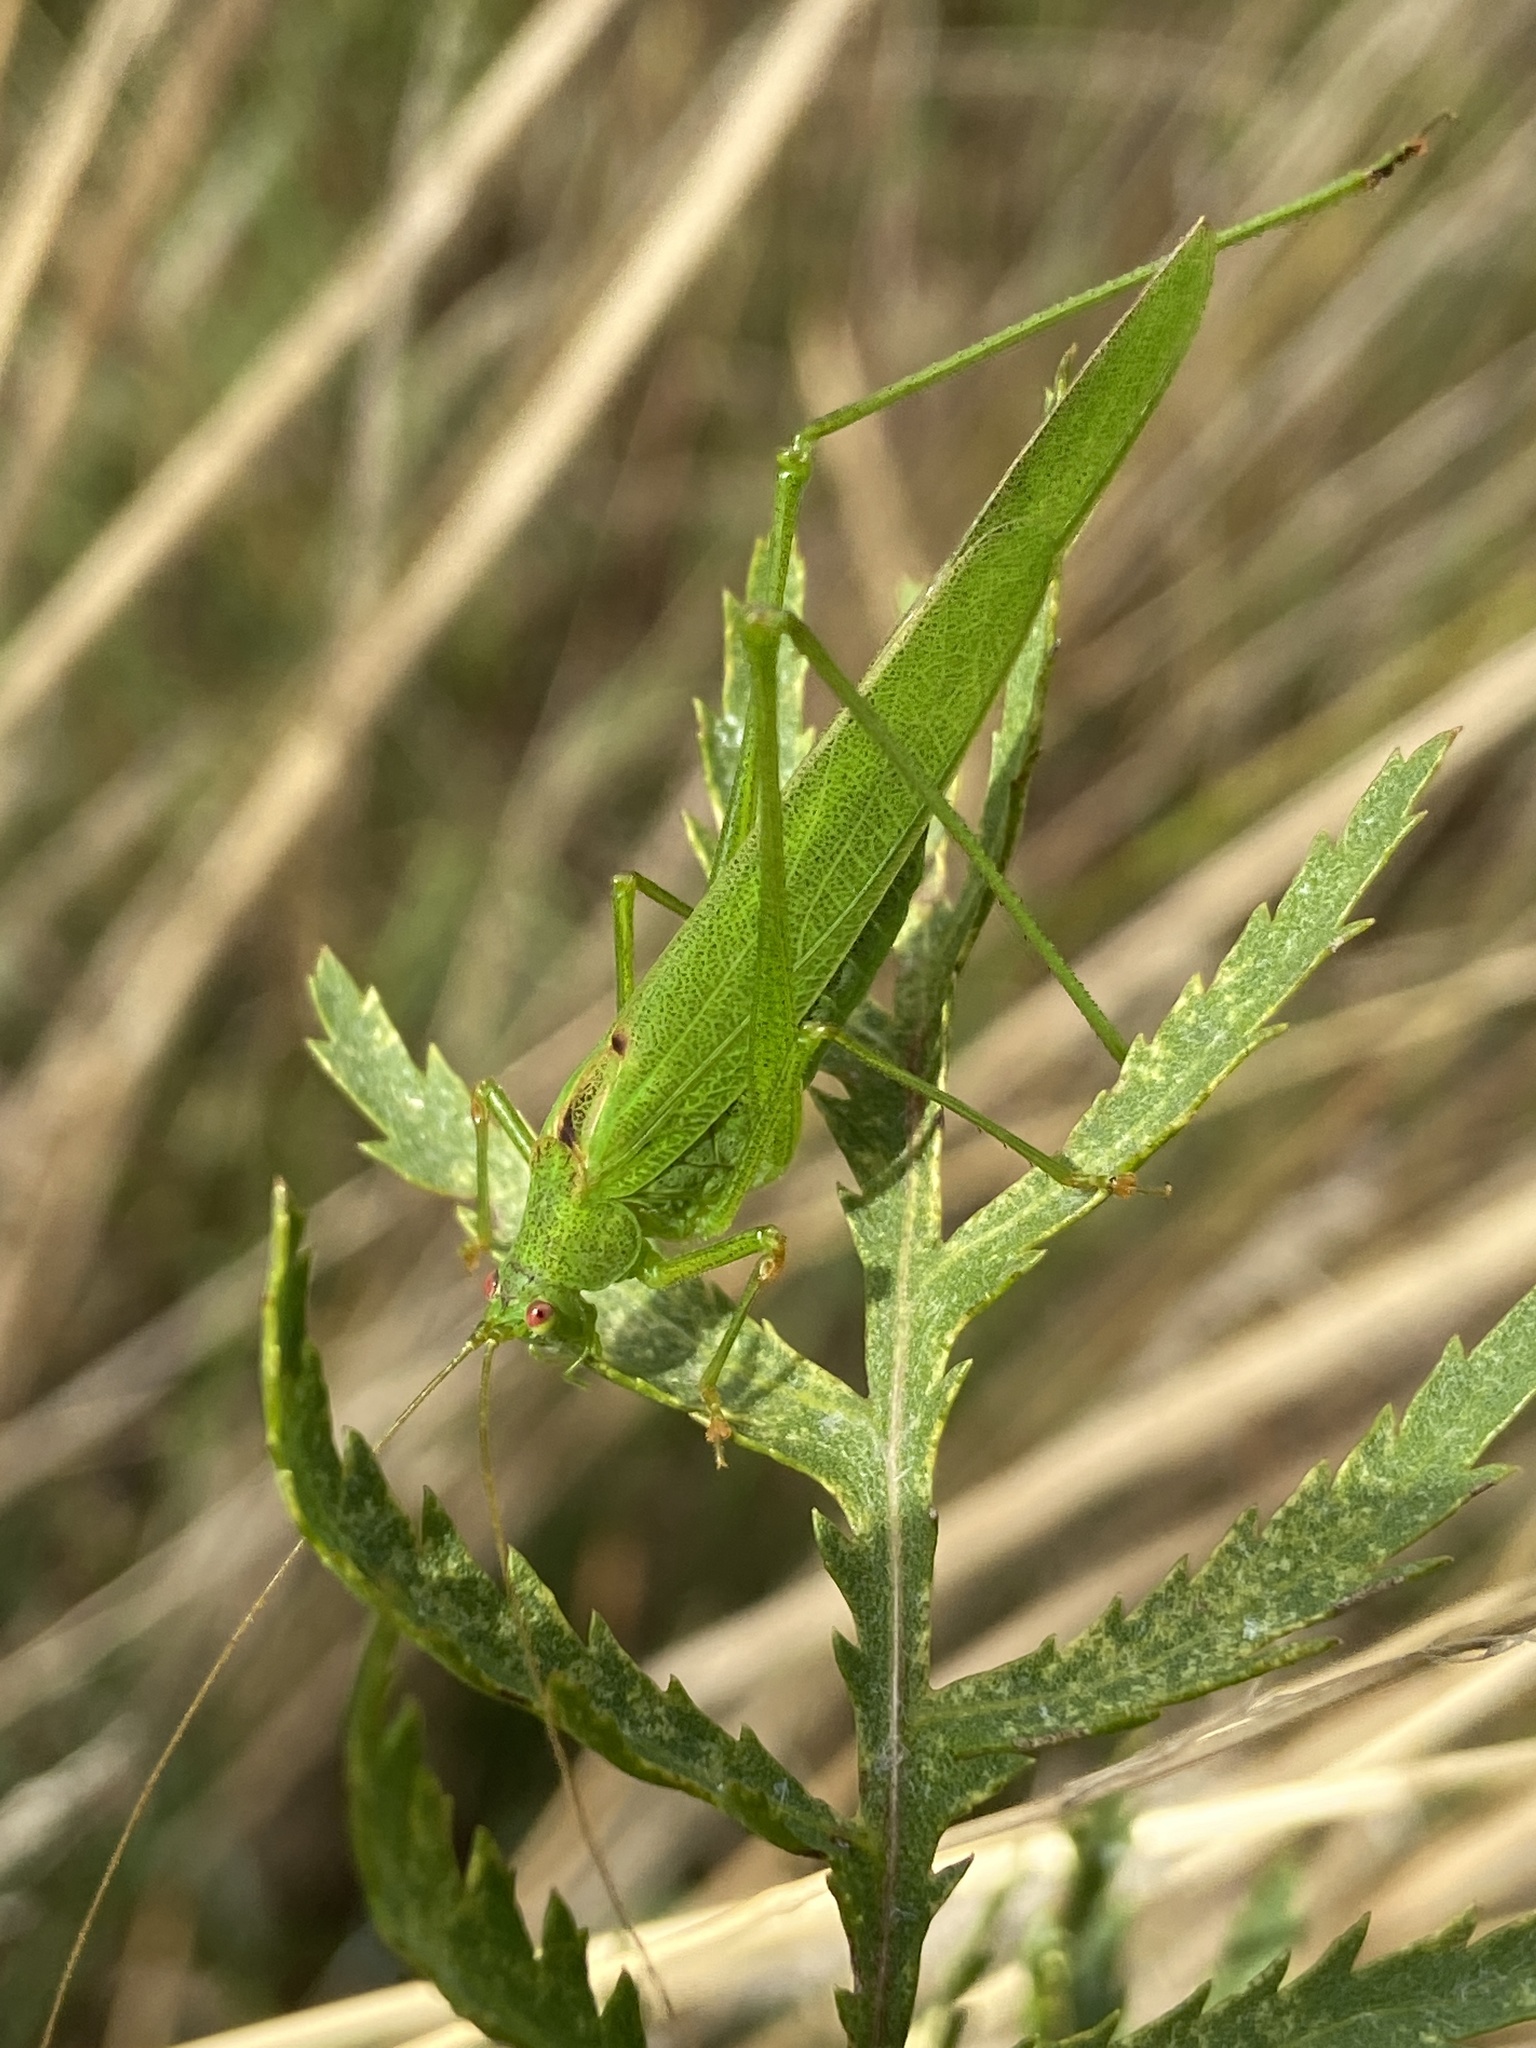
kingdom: Animalia
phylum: Arthropoda
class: Insecta
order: Orthoptera
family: Tettigoniidae
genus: Phaneroptera
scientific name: Phaneroptera falcata
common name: Sickle-bearing bush-cricket
